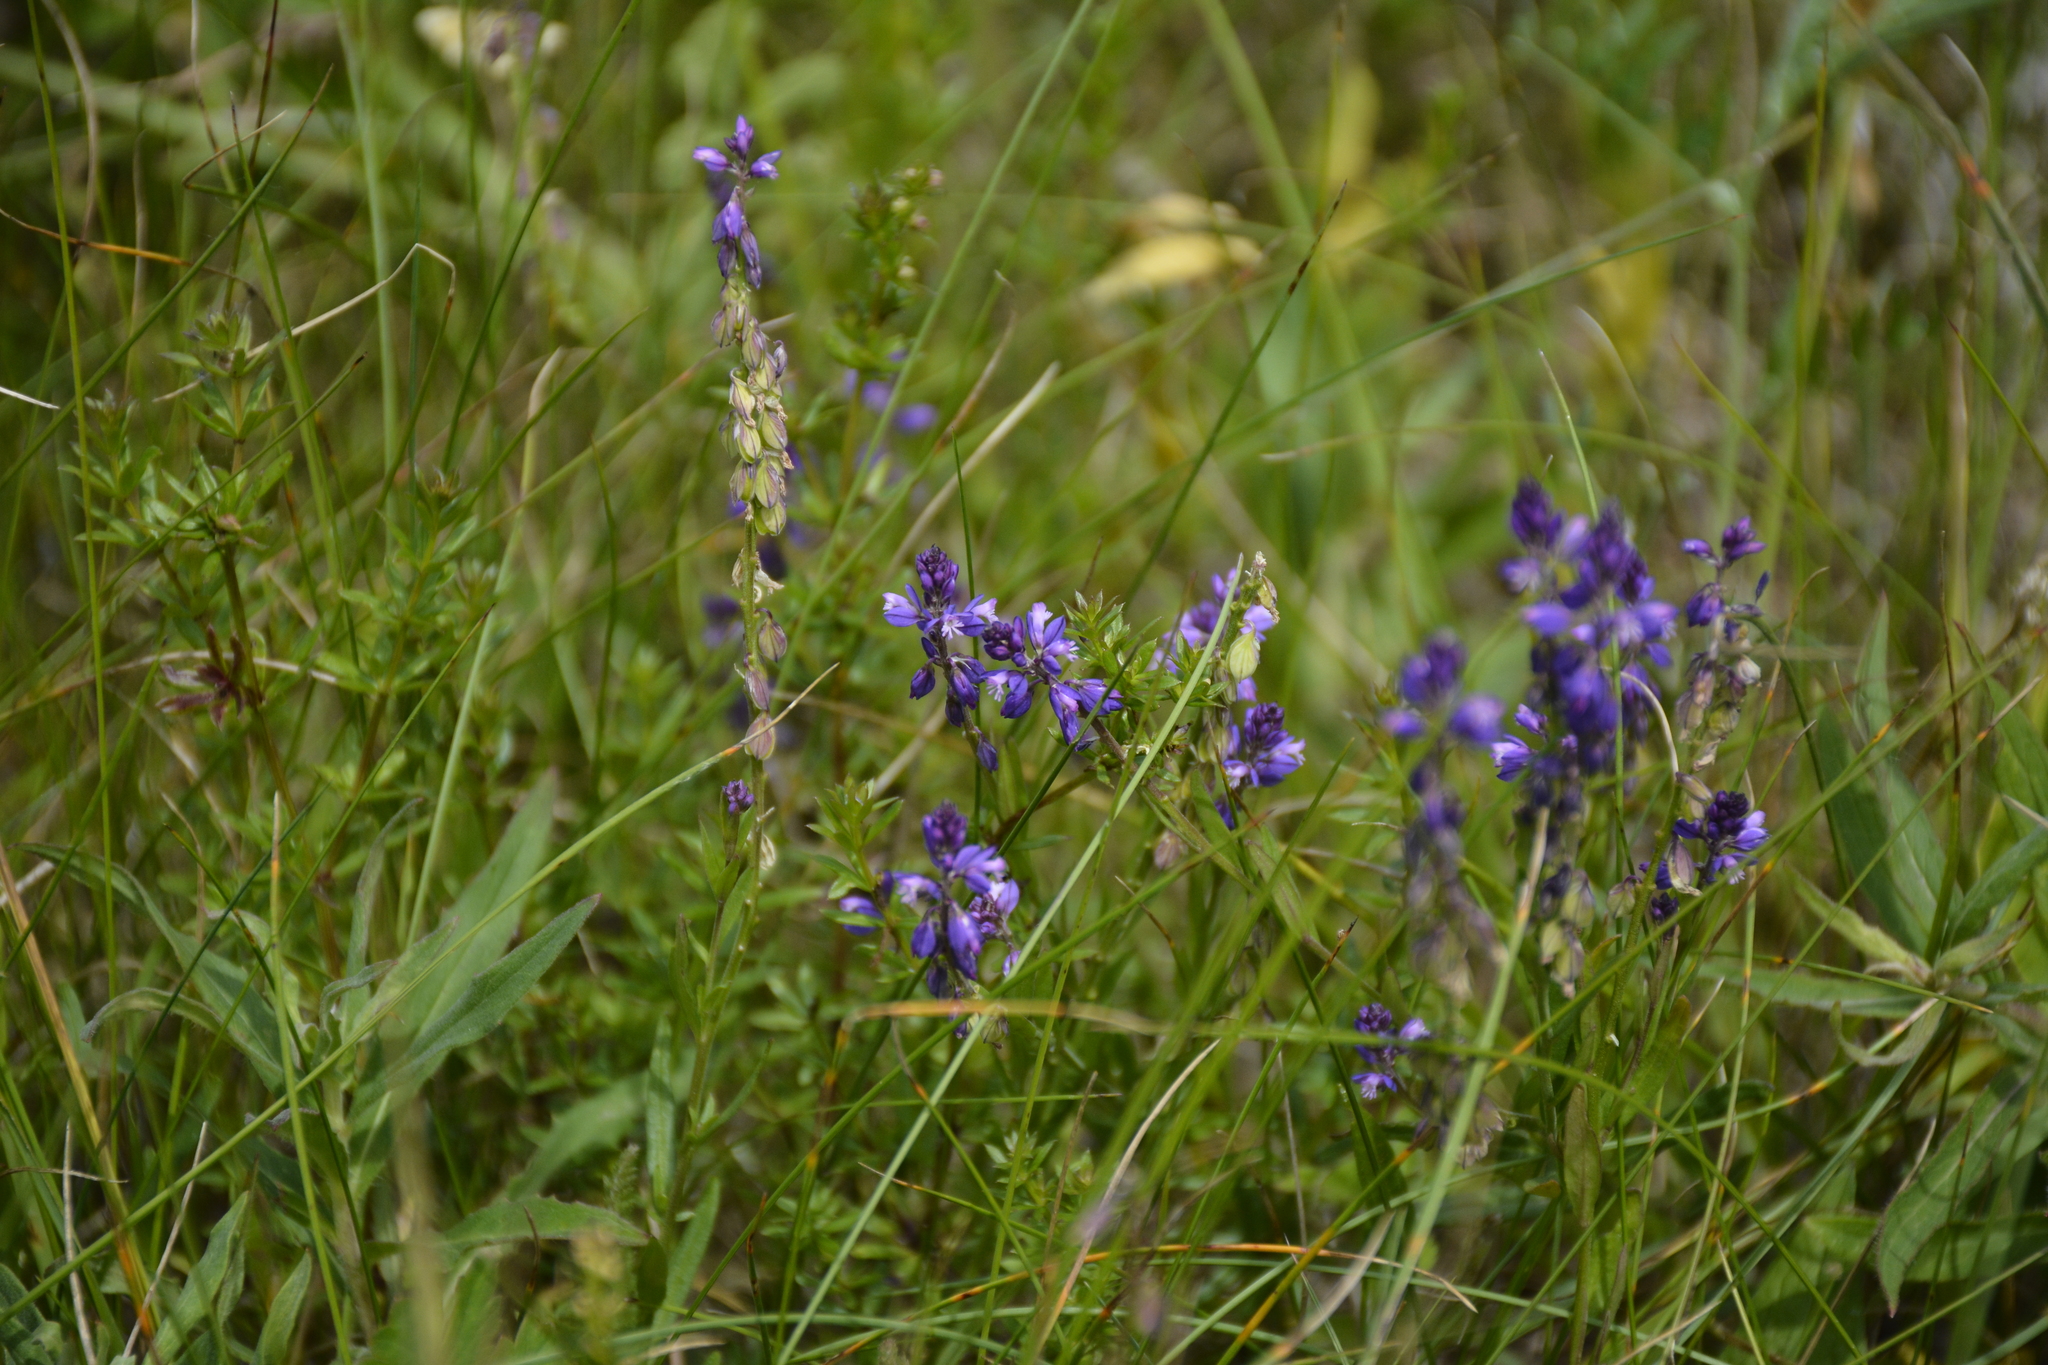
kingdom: Plantae
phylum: Tracheophyta
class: Magnoliopsida
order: Fabales
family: Polygalaceae
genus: Polygala
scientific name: Polygala comosa
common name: Tufted milkwort
